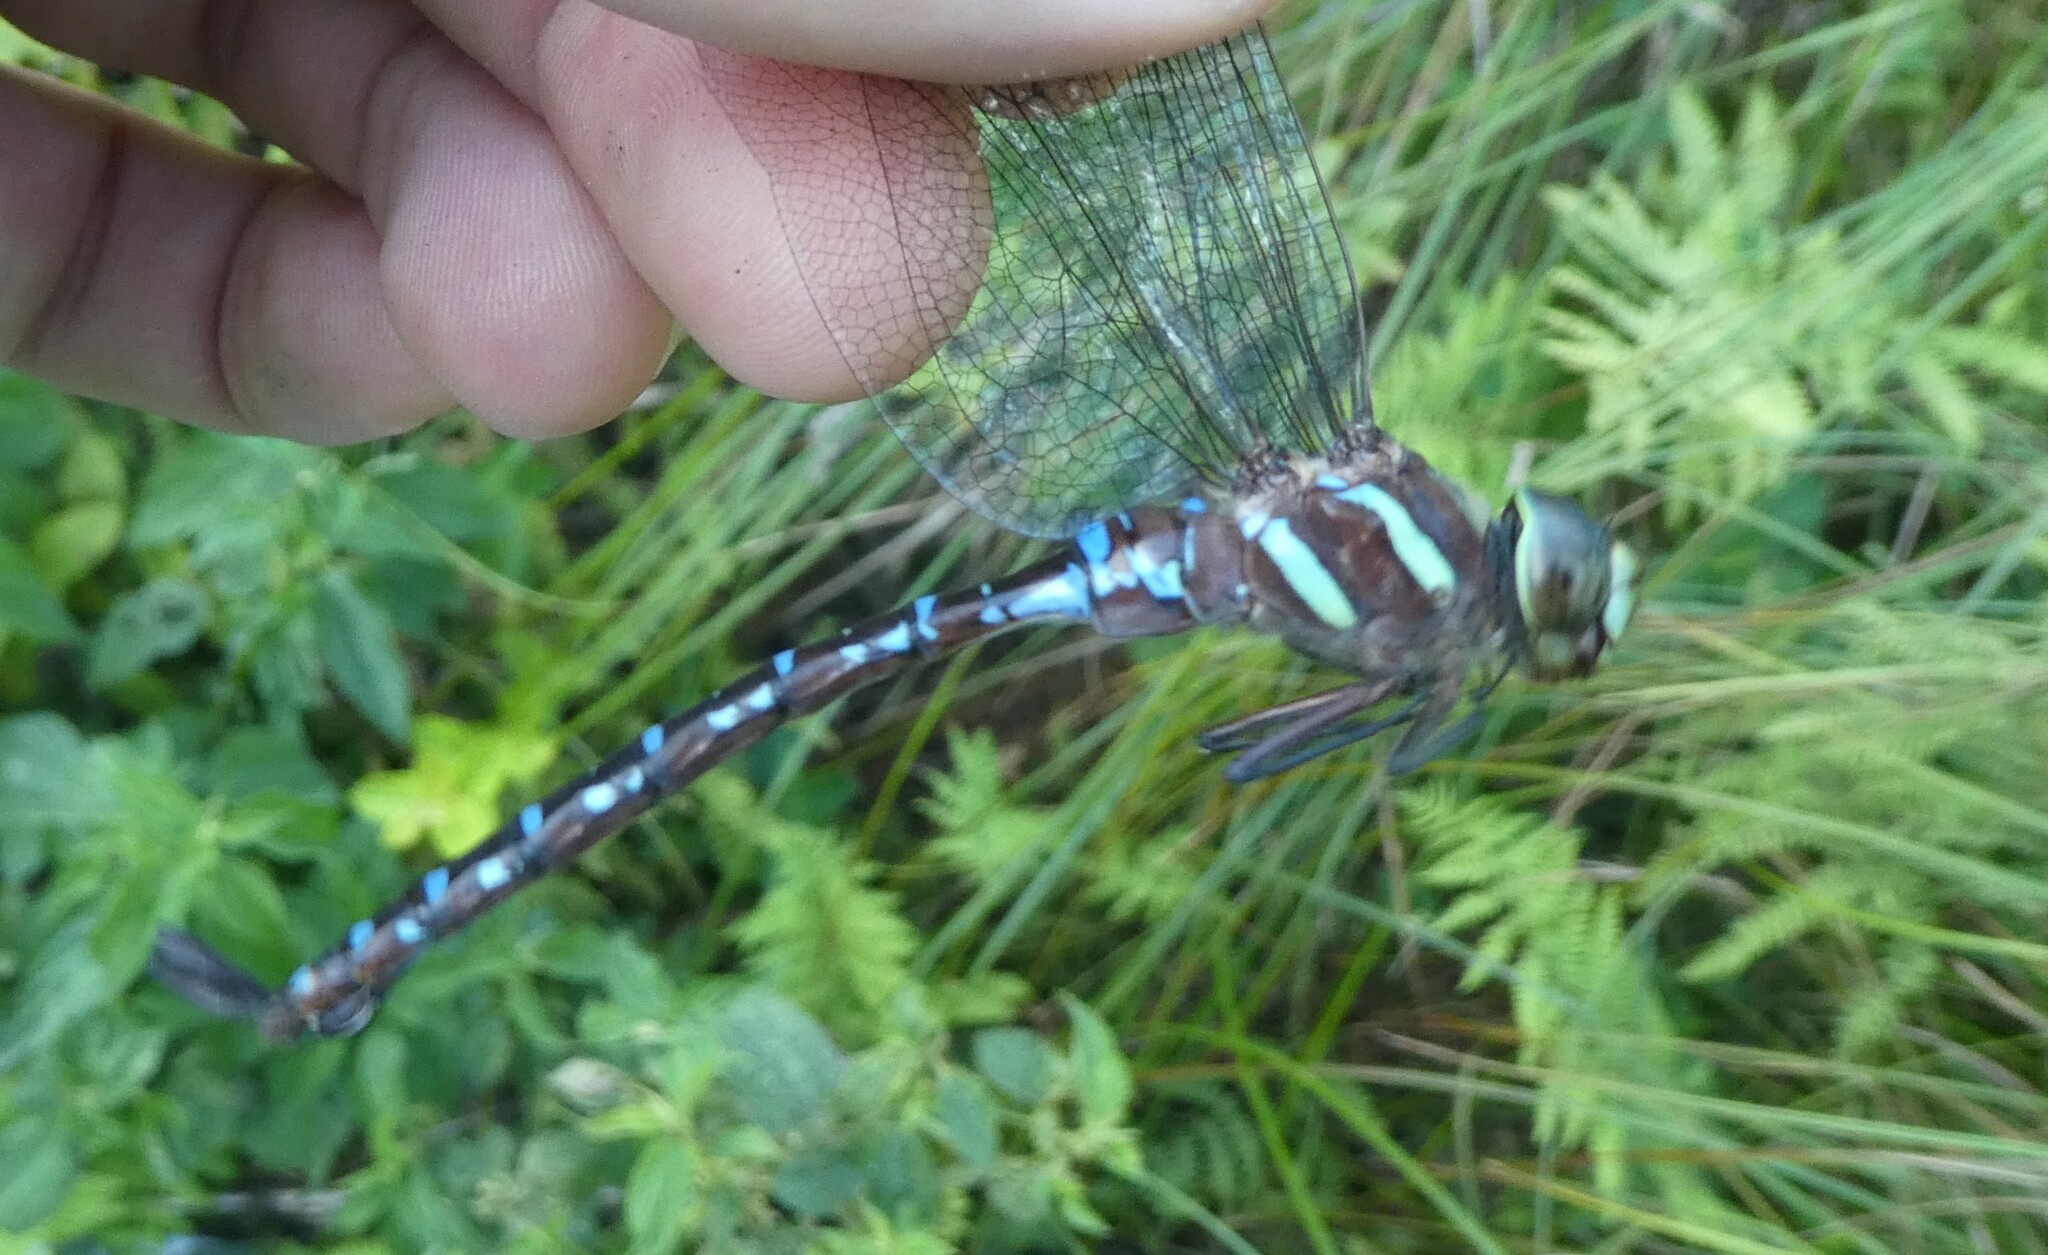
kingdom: Animalia
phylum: Arthropoda
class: Insecta
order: Odonata
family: Aeshnidae
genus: Aeshna
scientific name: Aeshna tuberculifera
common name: Aeschne à tubercules
